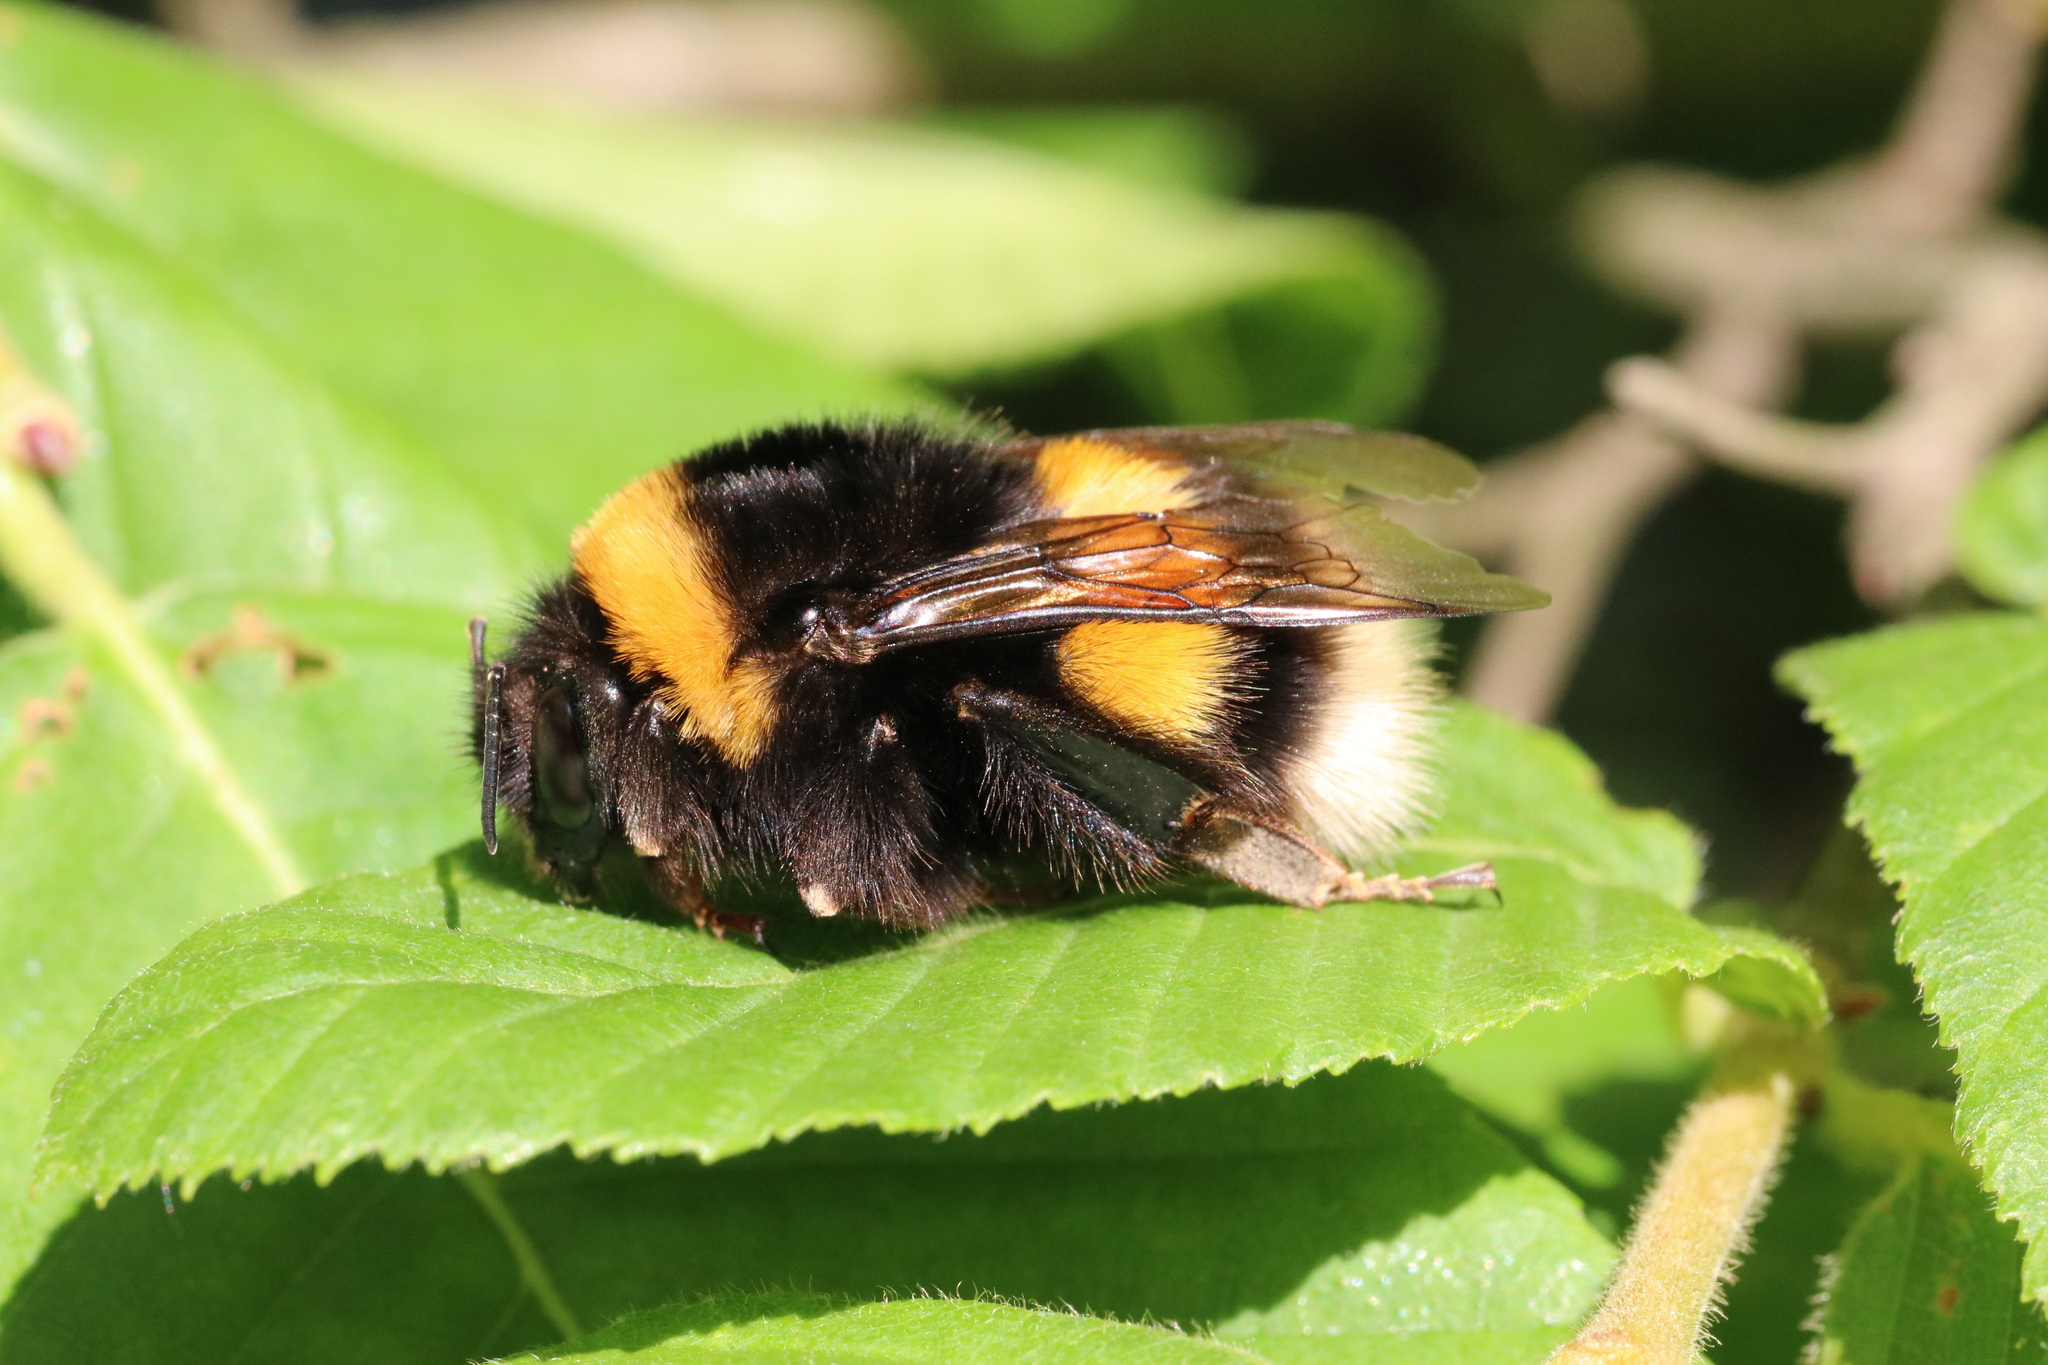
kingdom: Animalia
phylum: Arthropoda
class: Insecta
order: Hymenoptera
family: Apidae
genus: Bombus
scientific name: Bombus terrestris
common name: Buff-tailed bumblebee
